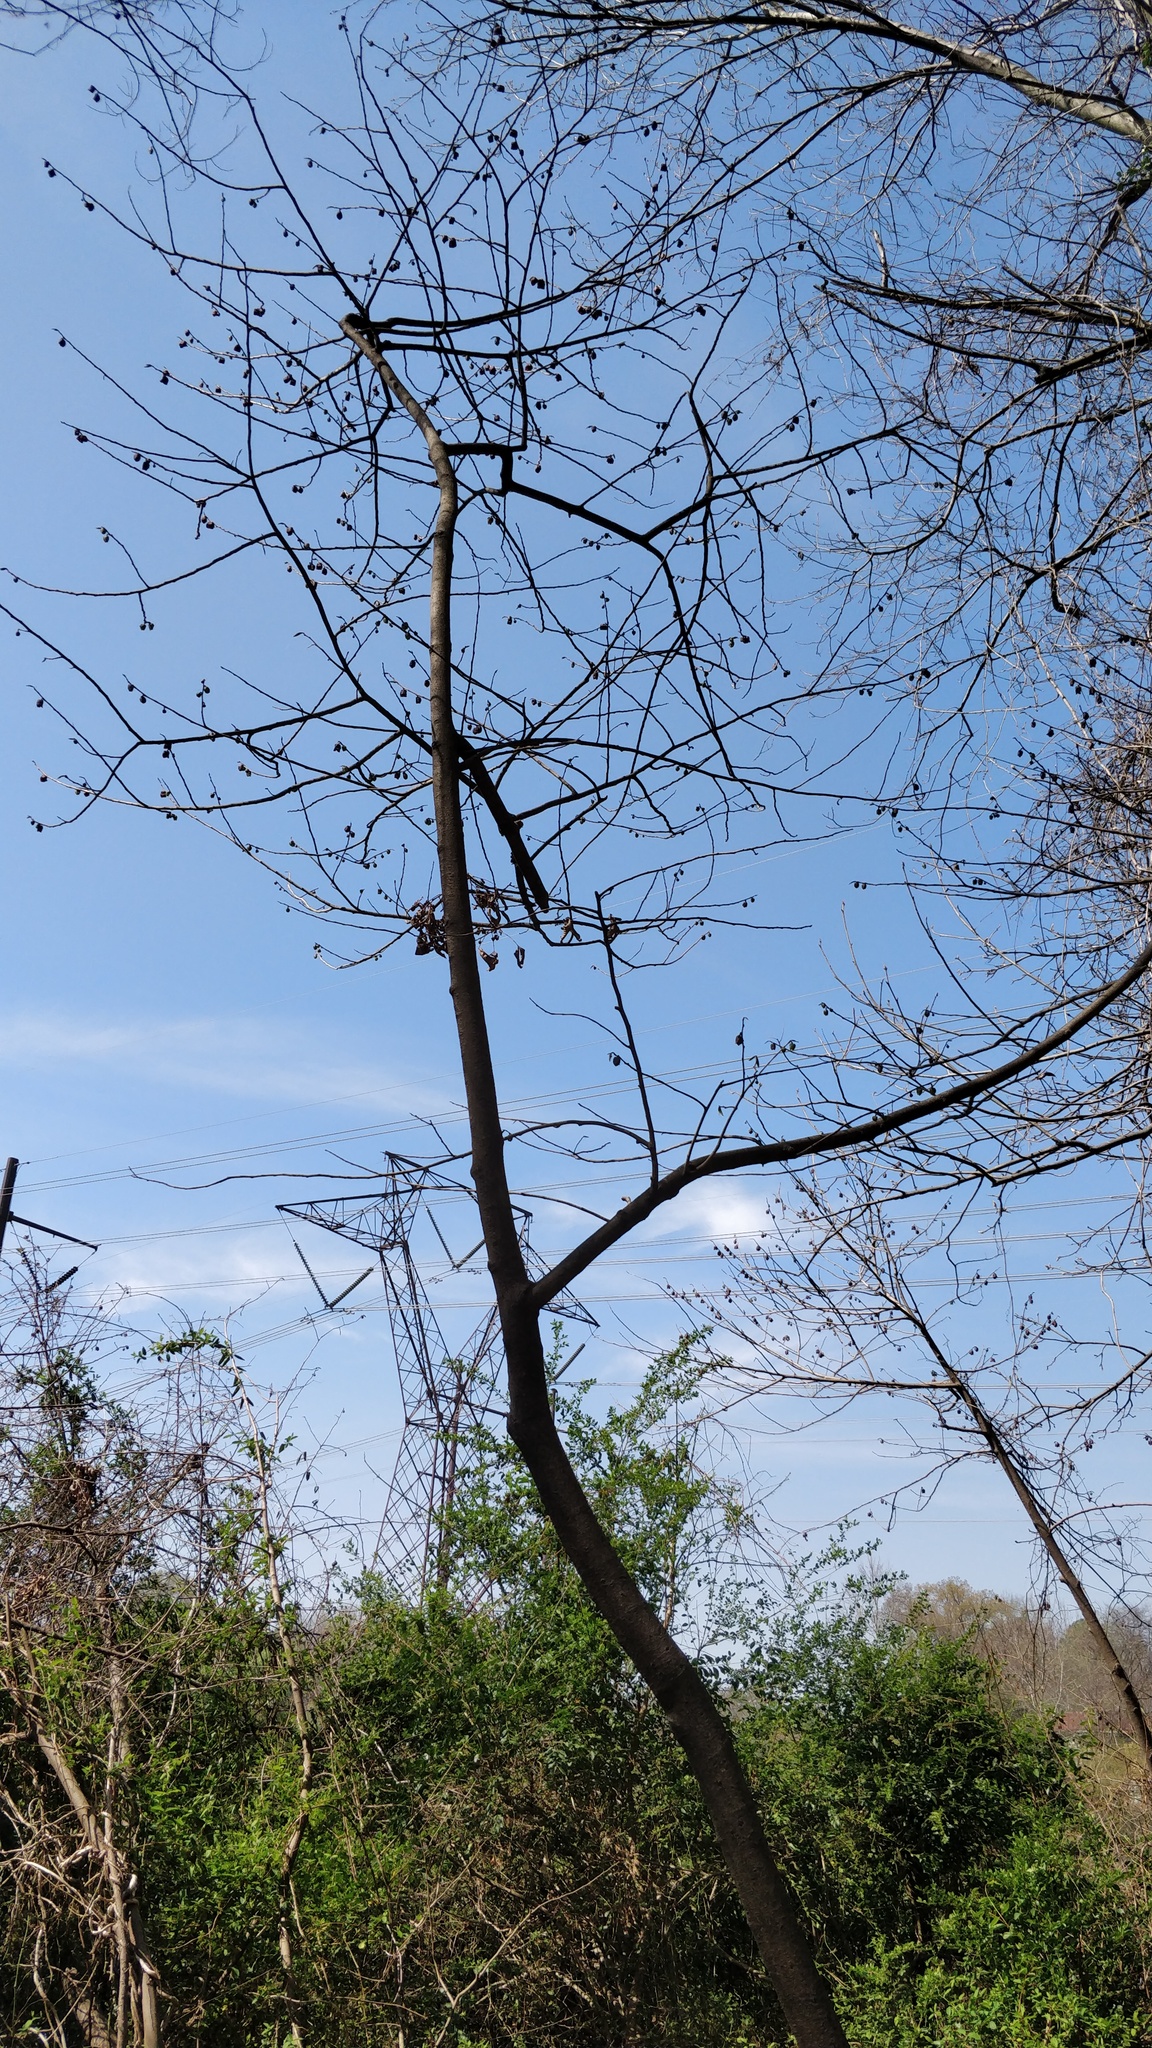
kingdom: Plantae
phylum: Tracheophyta
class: Magnoliopsida
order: Magnoliales
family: Annonaceae
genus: Asimina
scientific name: Asimina triloba
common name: Dog-banana
